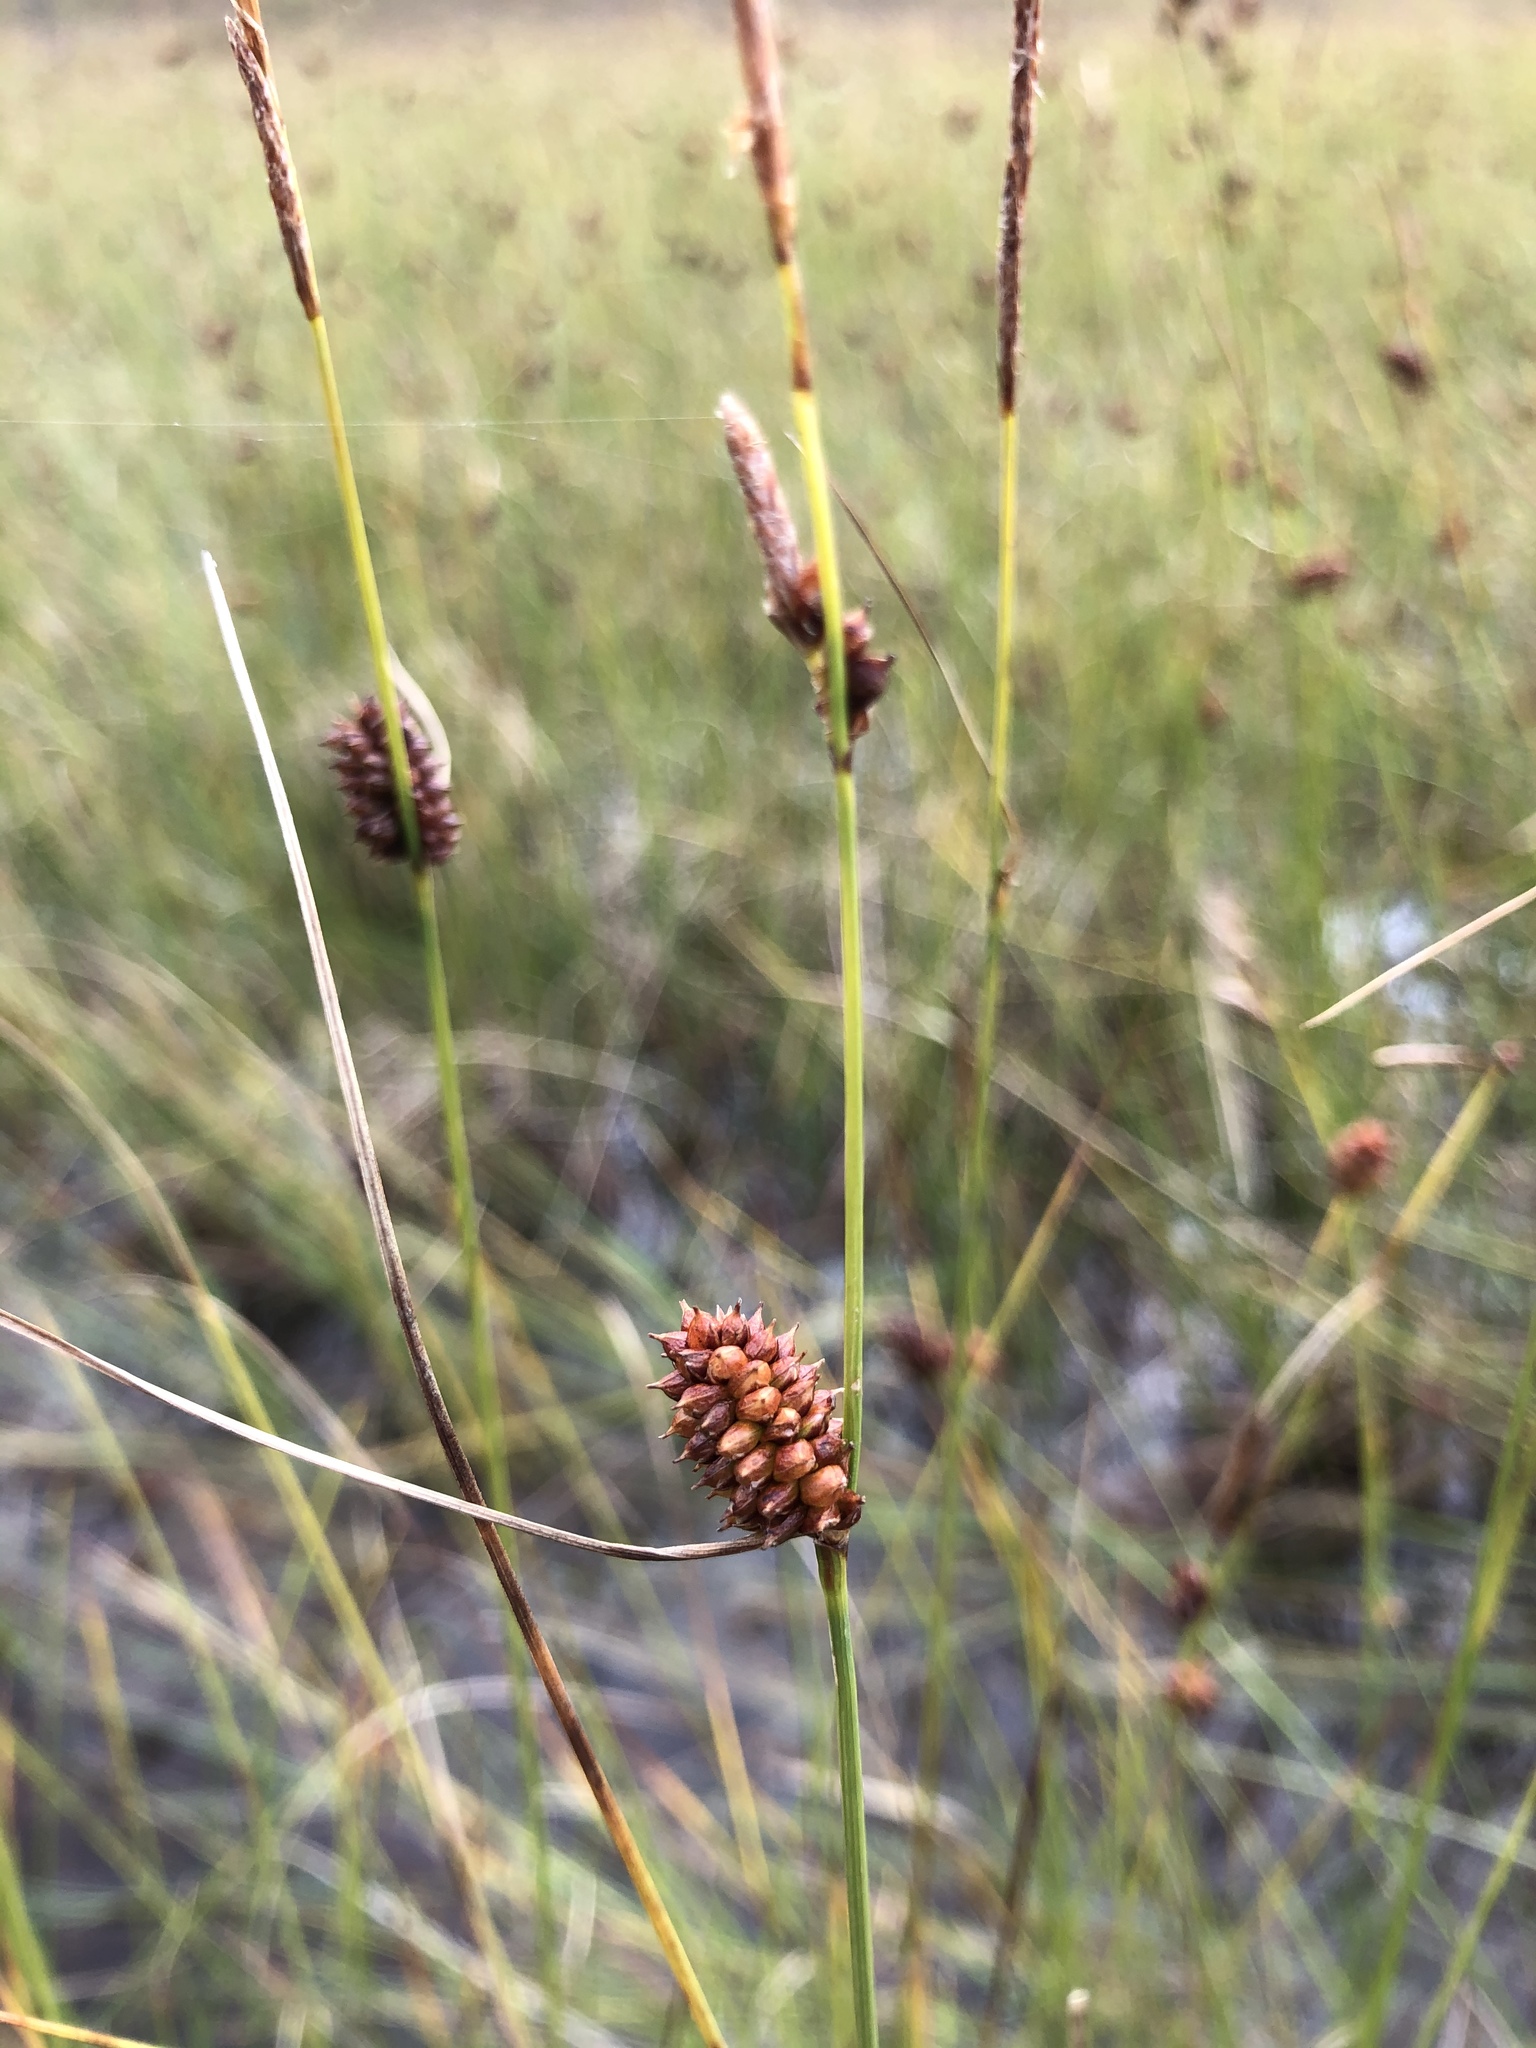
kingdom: Plantae
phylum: Tracheophyta
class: Liliopsida
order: Poales
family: Cyperaceae
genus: Carex
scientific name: Carex rotundata
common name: Round-fruited sedge
